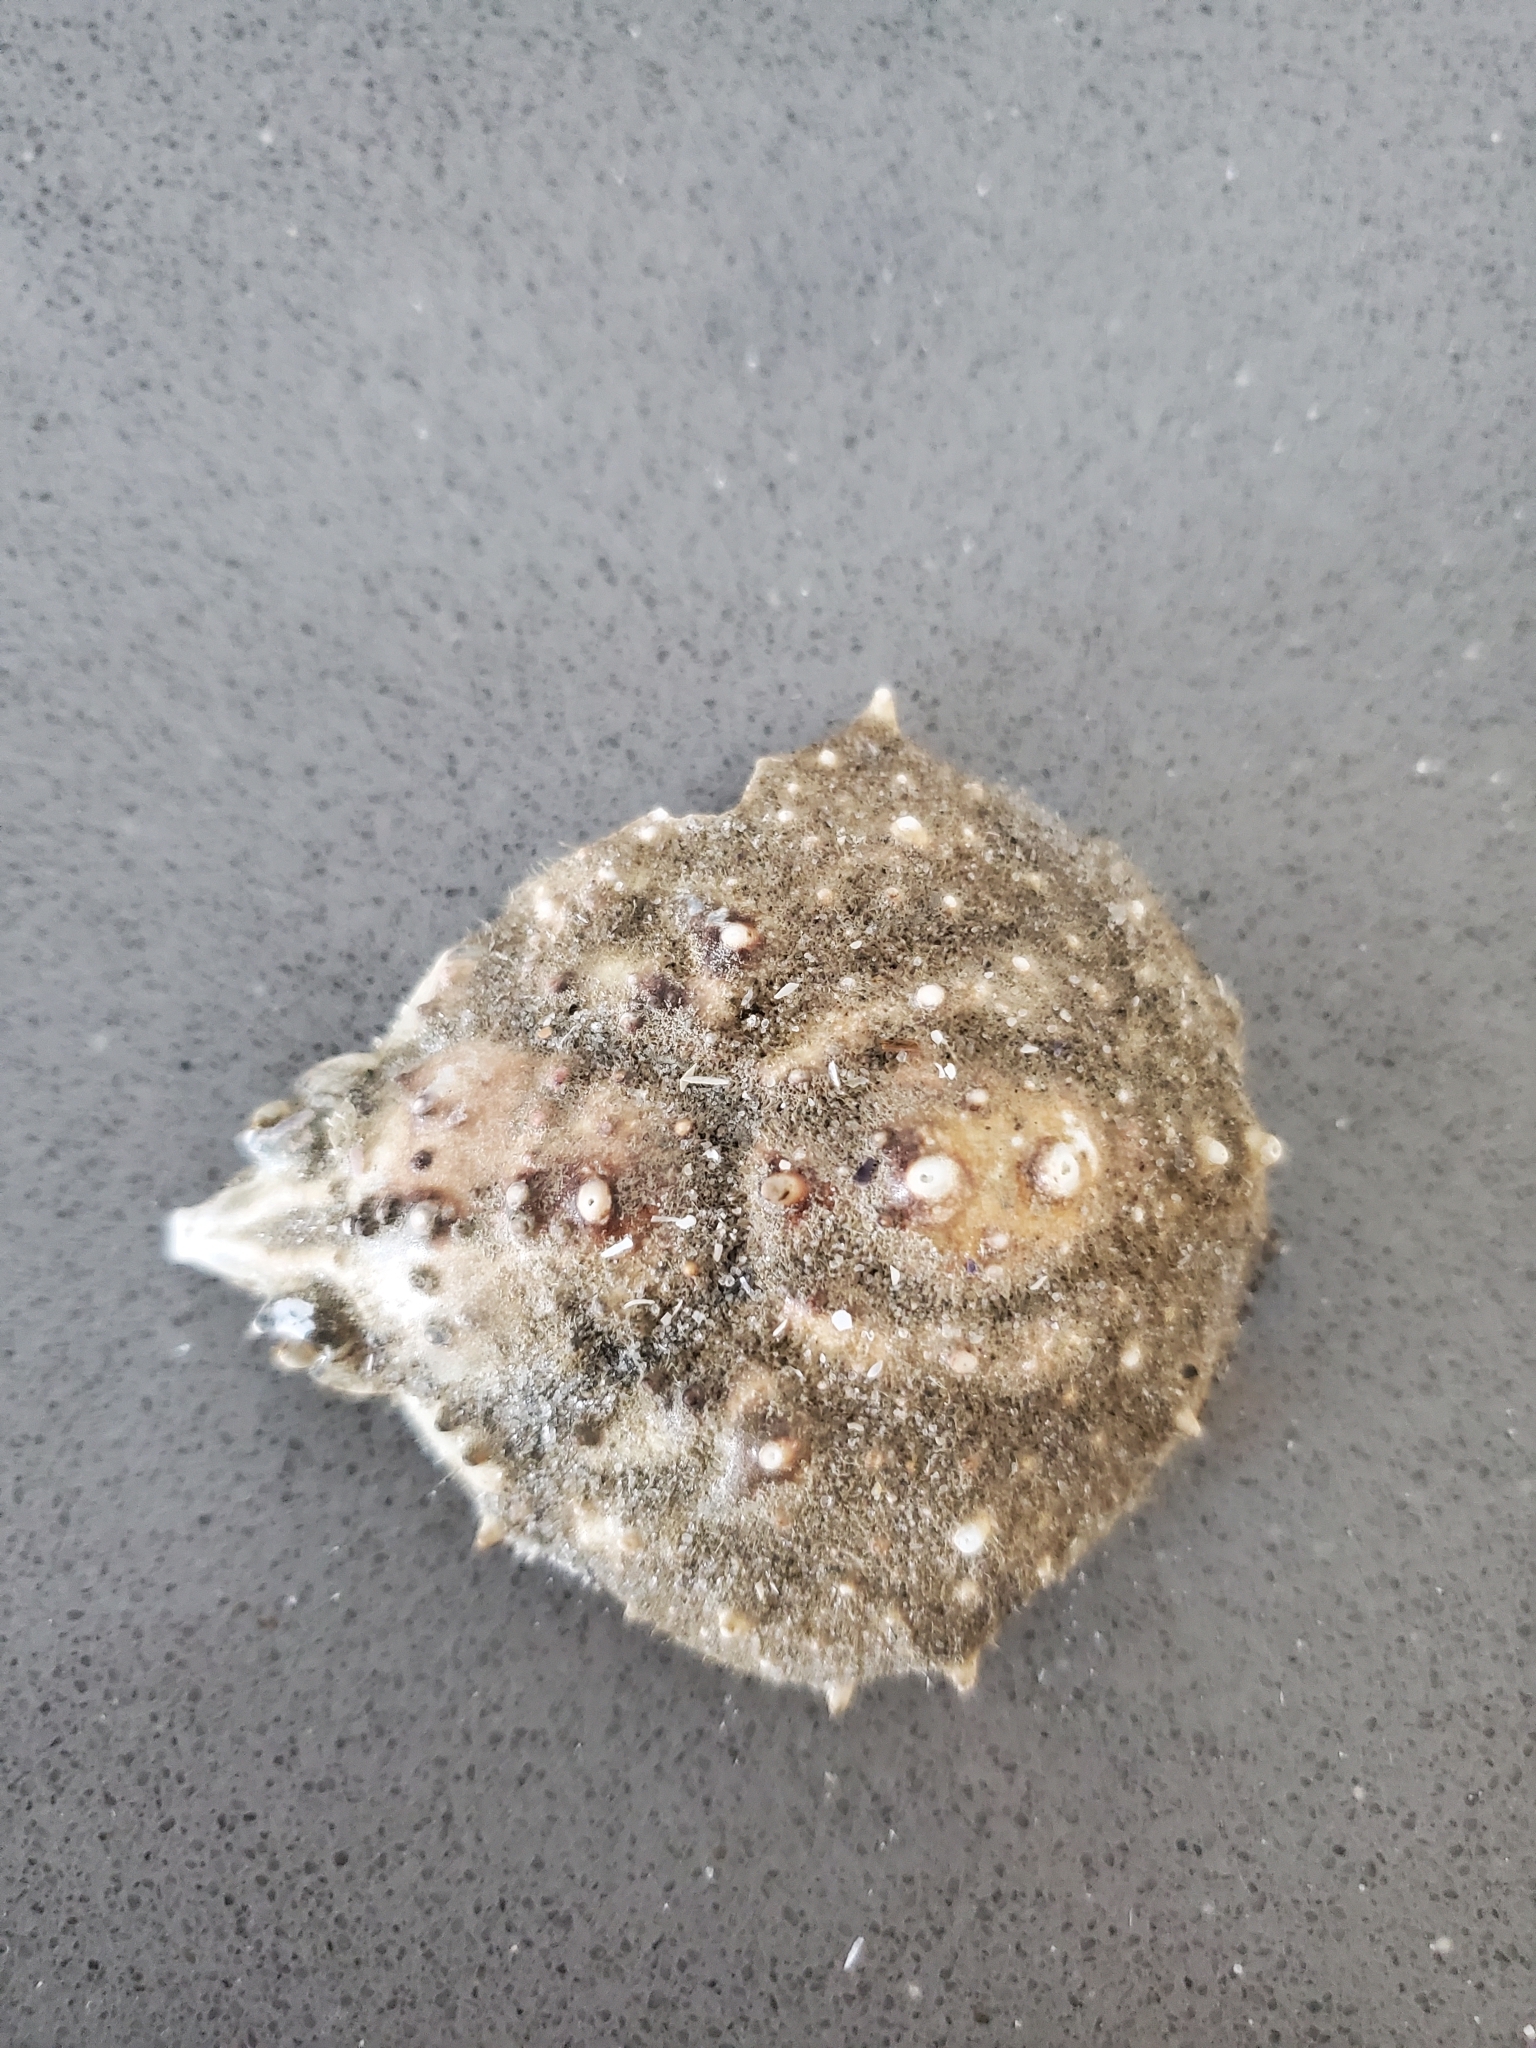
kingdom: Animalia
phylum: Arthropoda
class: Malacostraca
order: Decapoda
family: Epialtidae
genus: Libinia
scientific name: Libinia emarginata
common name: Common spider crab
